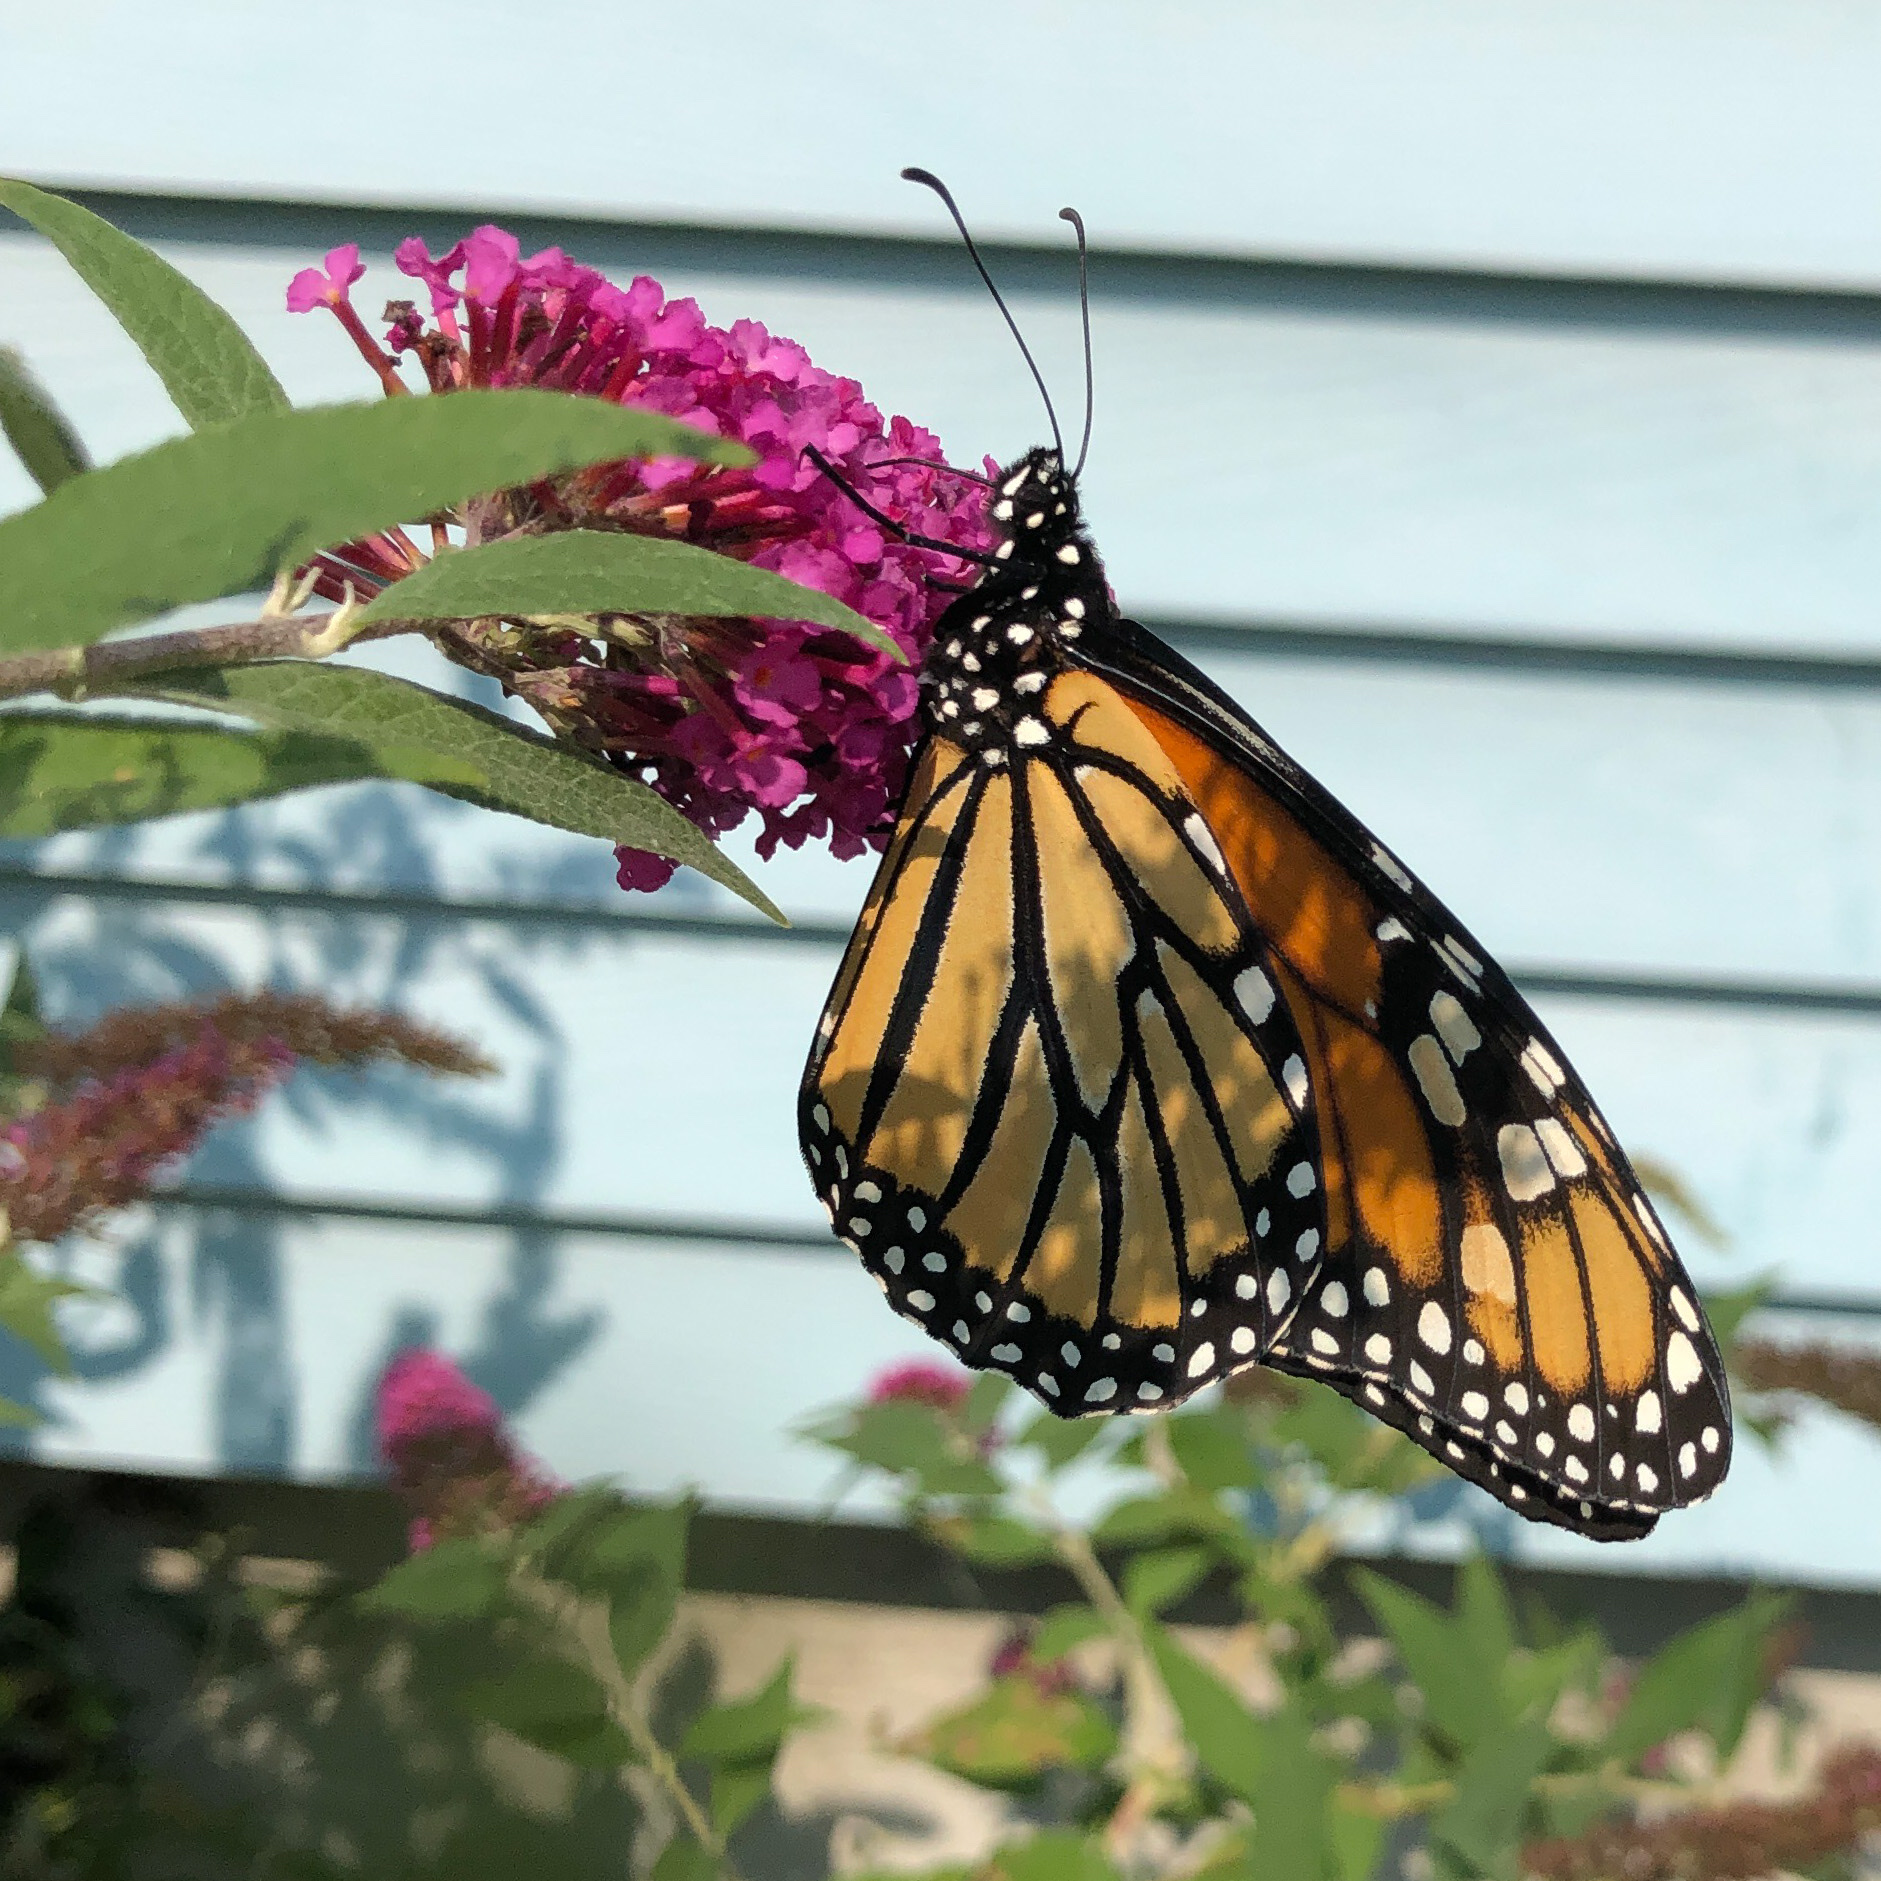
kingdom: Animalia
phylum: Arthropoda
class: Insecta
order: Lepidoptera
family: Nymphalidae
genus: Danaus
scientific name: Danaus plexippus
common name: Monarch
